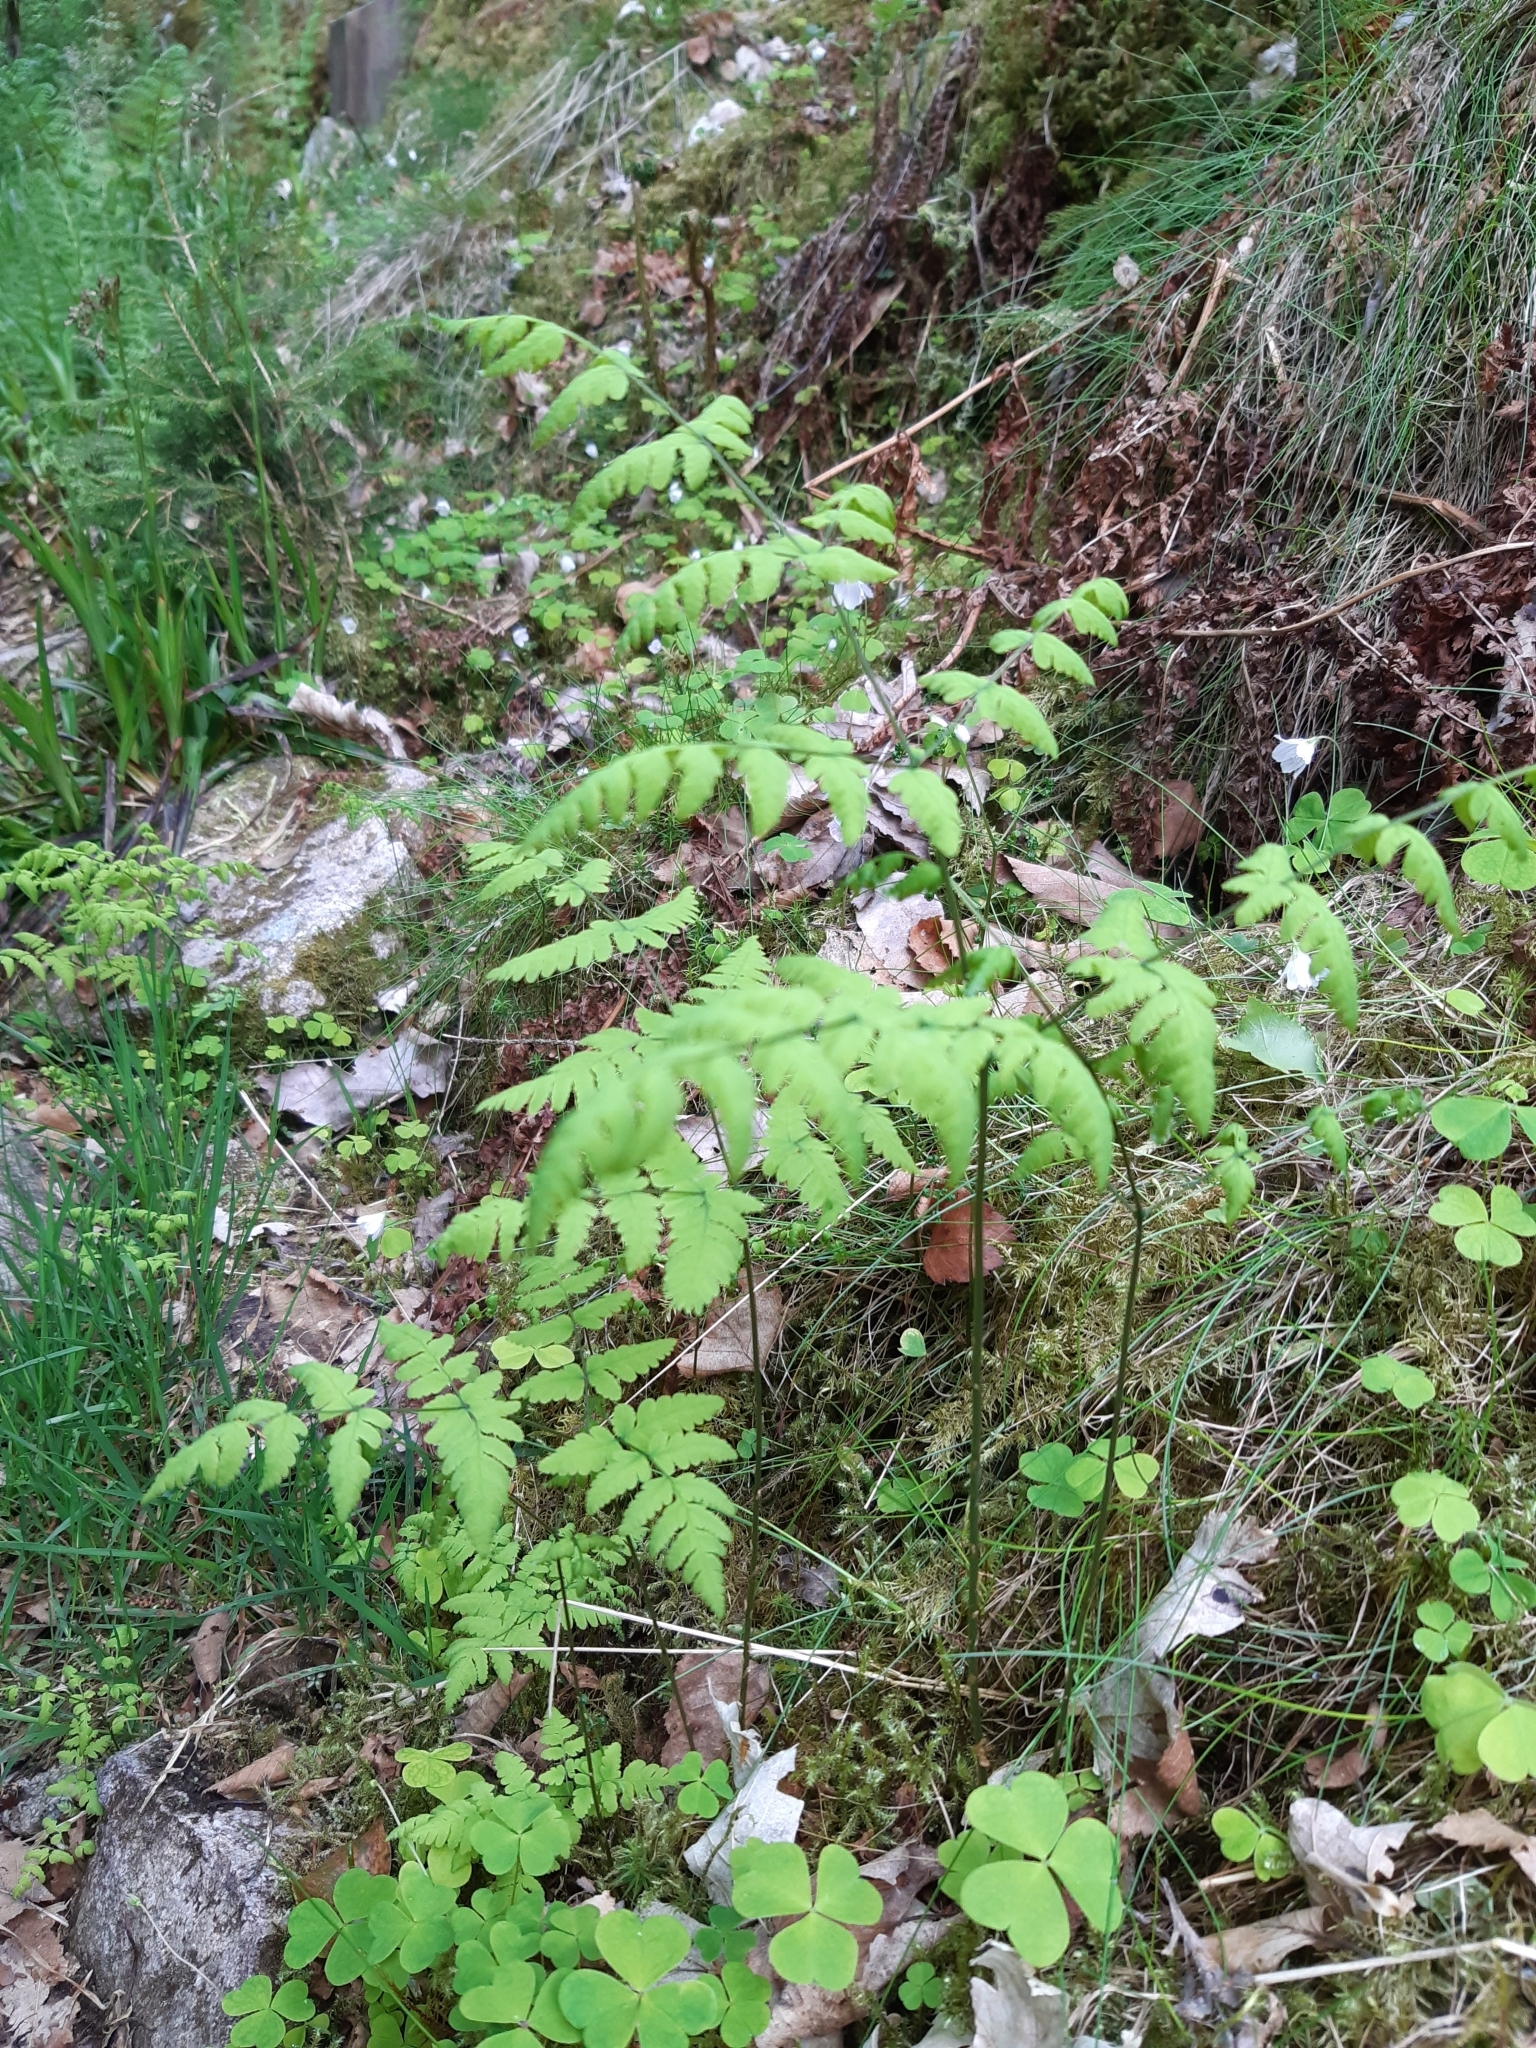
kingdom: Plantae
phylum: Tracheophyta
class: Polypodiopsida
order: Polypodiales
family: Cystopteridaceae
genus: Gymnocarpium
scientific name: Gymnocarpium dryopteris
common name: Oak fern
